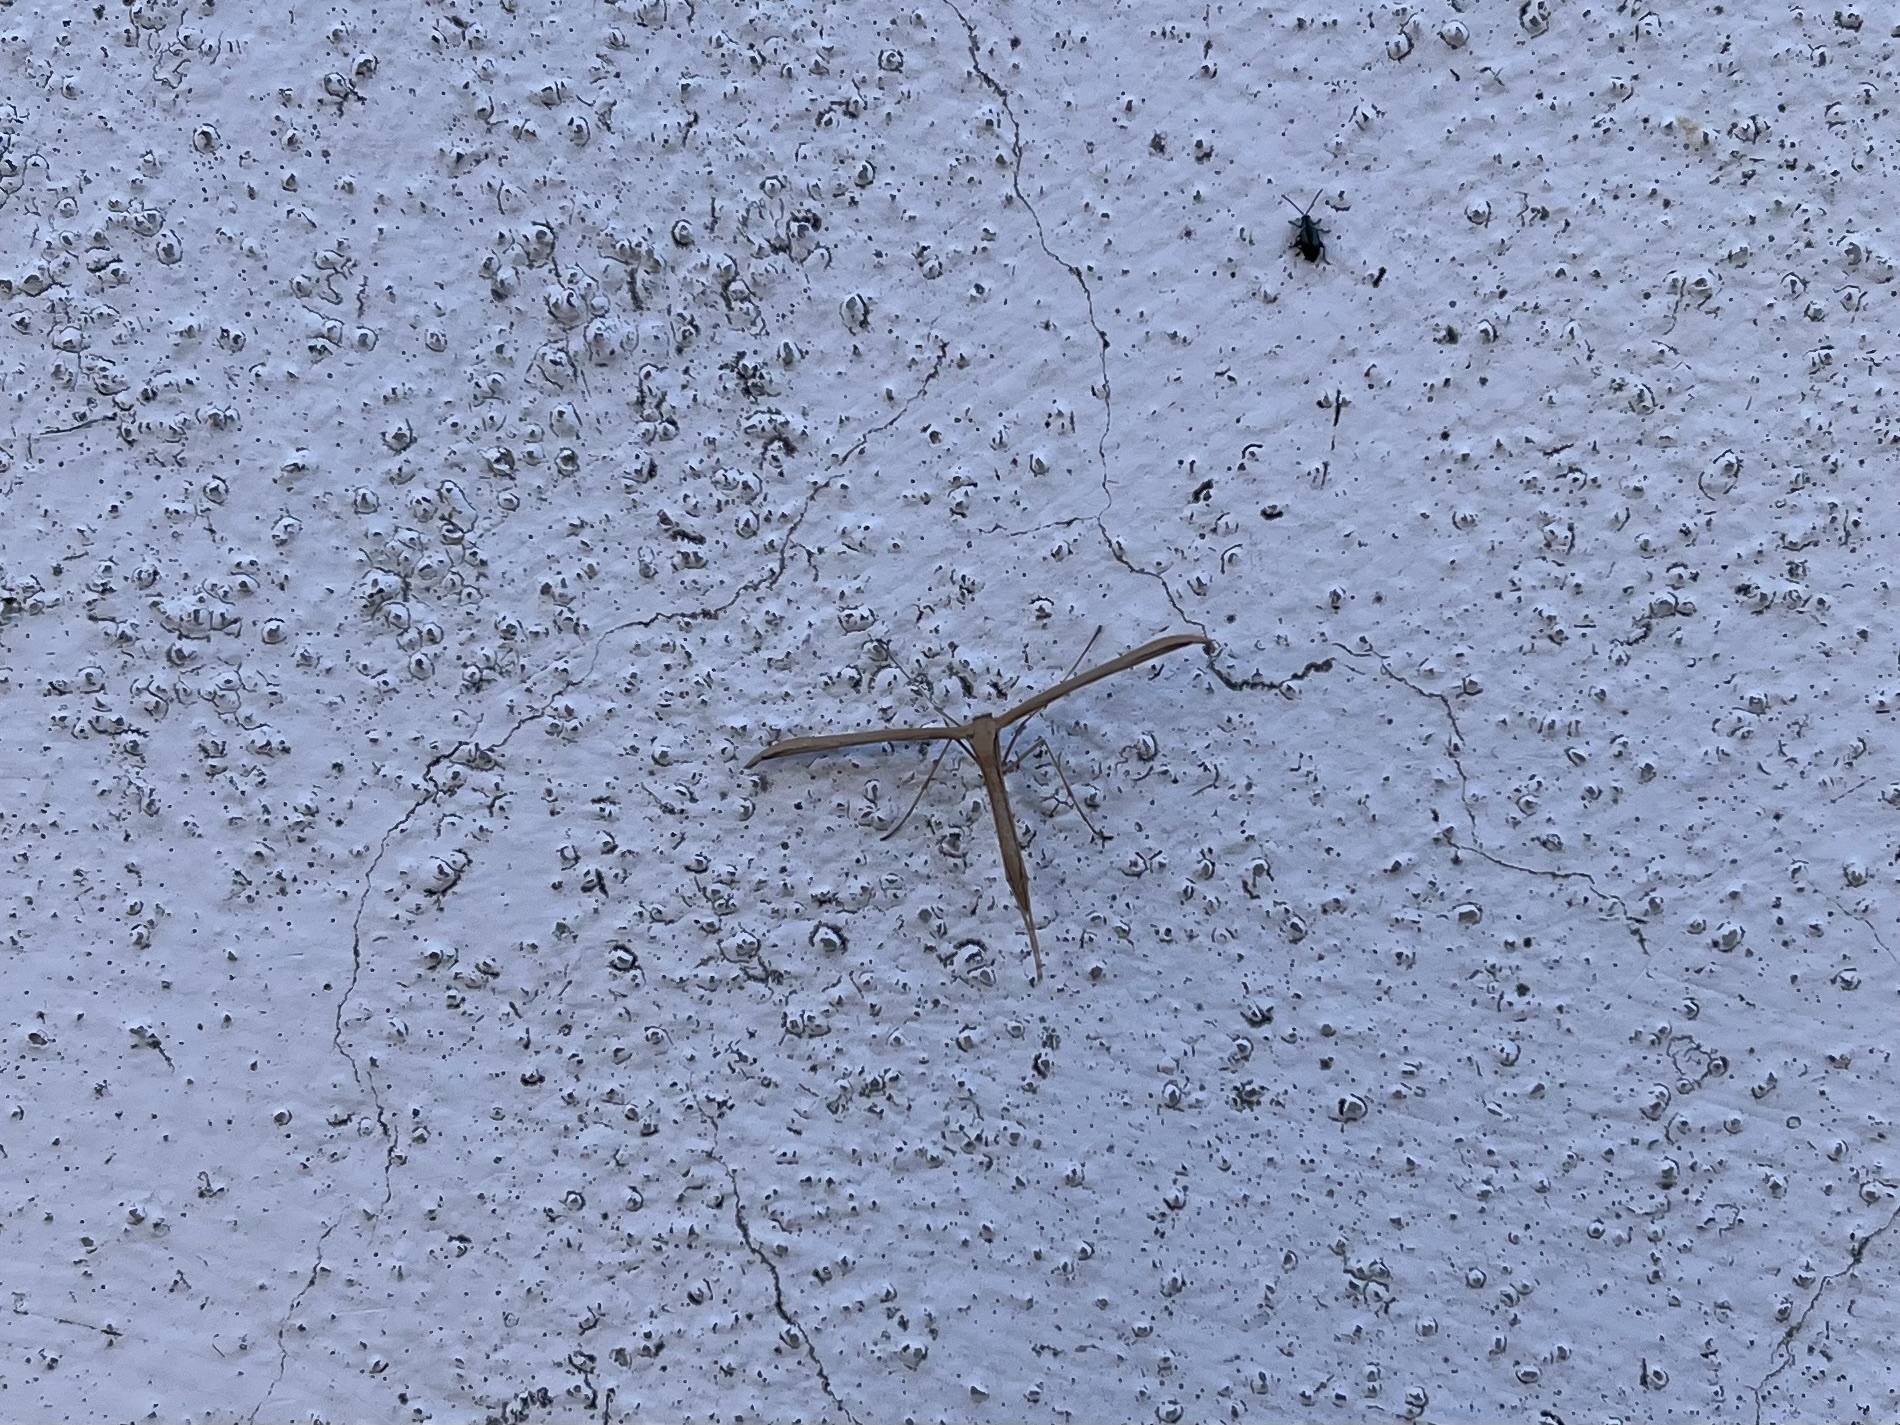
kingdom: Animalia
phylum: Arthropoda
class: Insecta
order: Lepidoptera
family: Pterophoridae
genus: Emmelina
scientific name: Emmelina monodactyla
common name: Common plume
